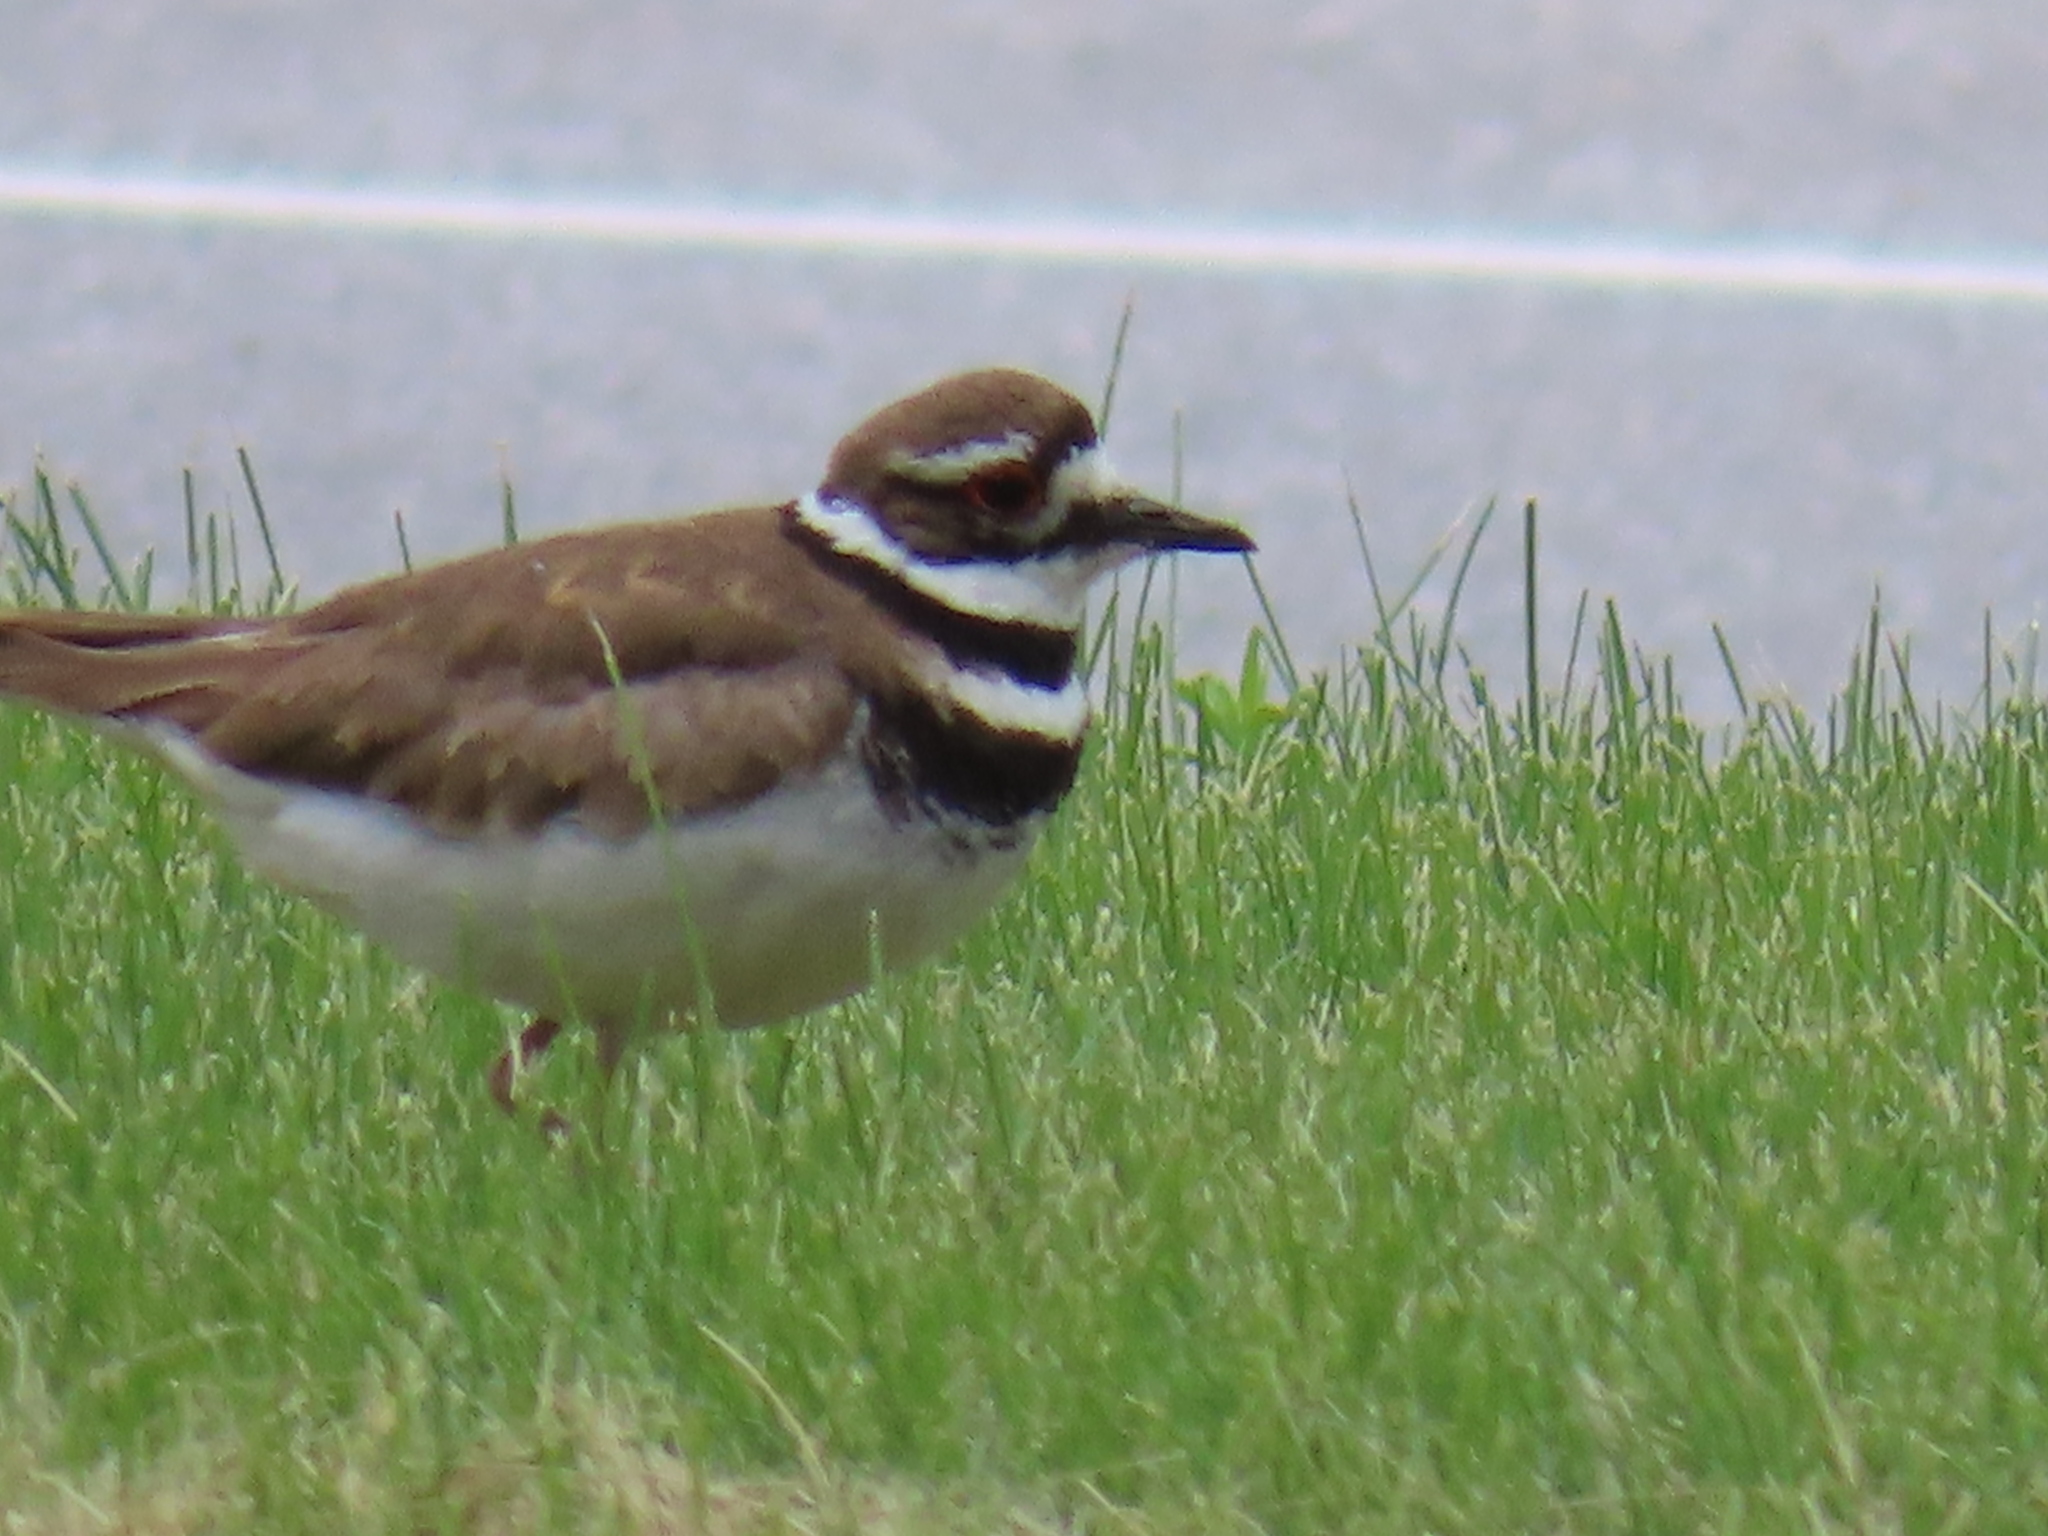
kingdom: Animalia
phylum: Chordata
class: Aves
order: Charadriiformes
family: Charadriidae
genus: Charadrius
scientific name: Charadrius vociferus
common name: Killdeer
